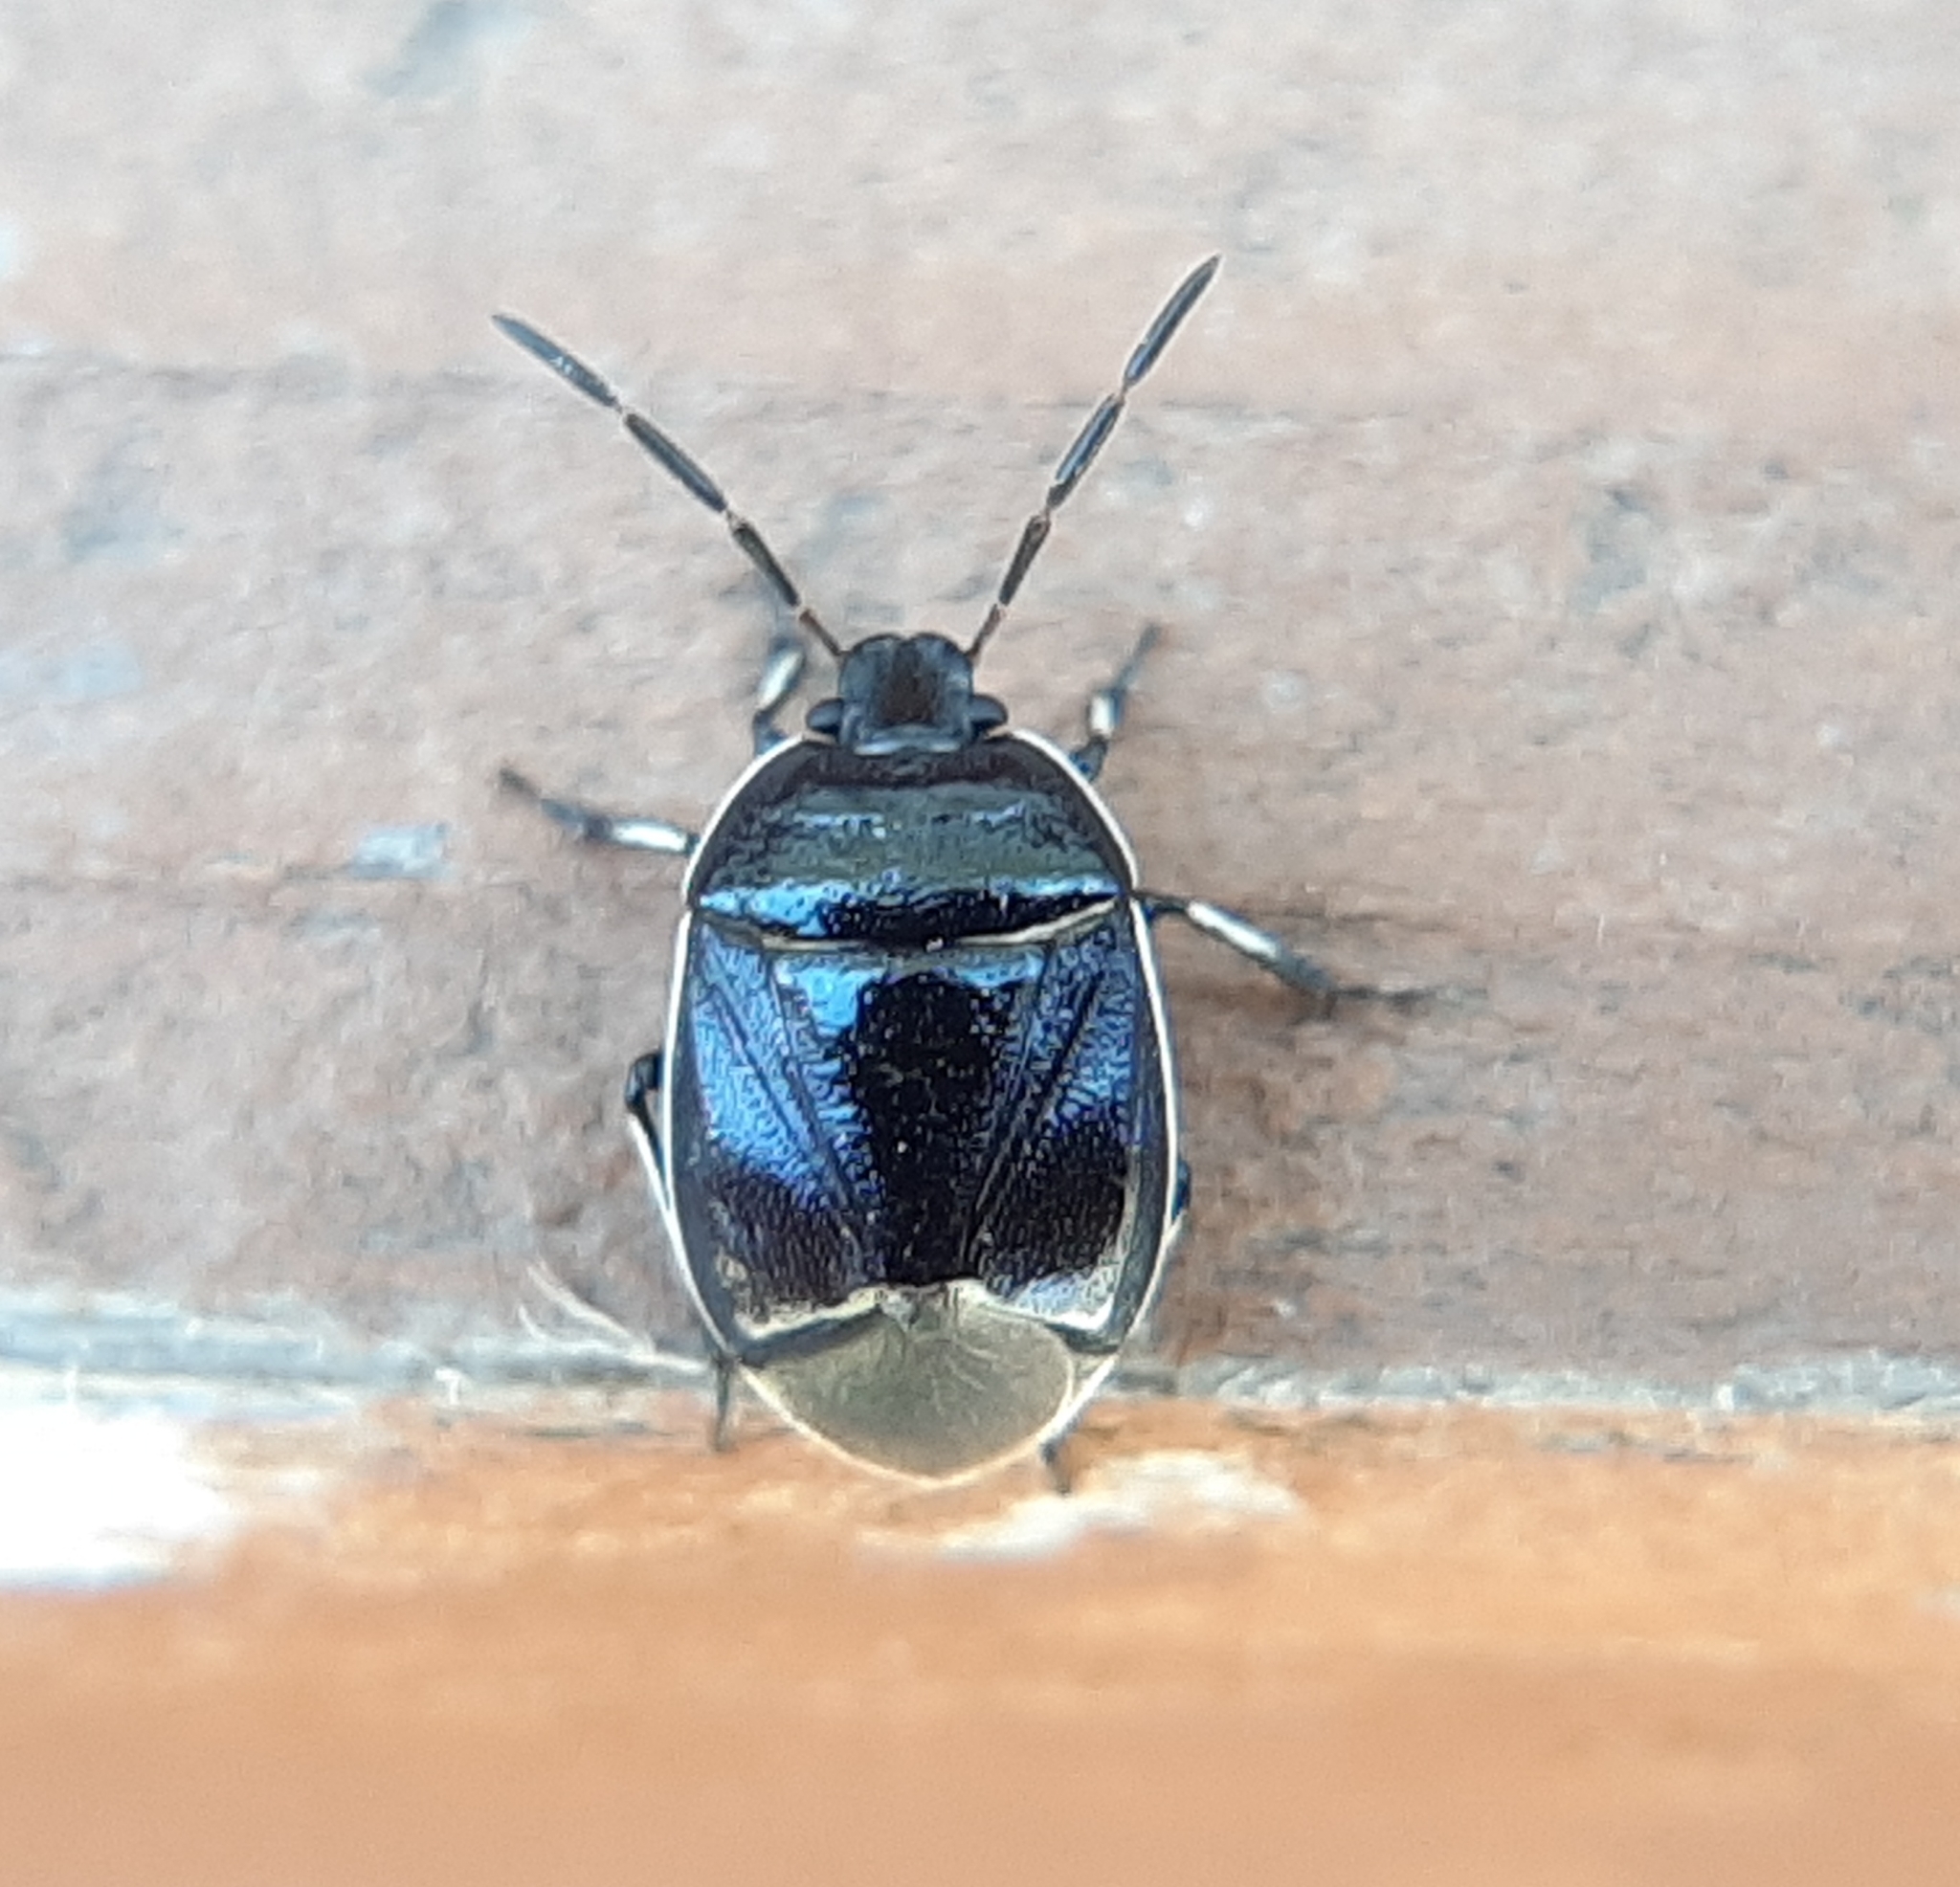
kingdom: Animalia
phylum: Arthropoda
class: Insecta
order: Hemiptera
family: Cydnidae
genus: Sehirus
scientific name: Sehirus cinctus
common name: White-margined burrower bug
